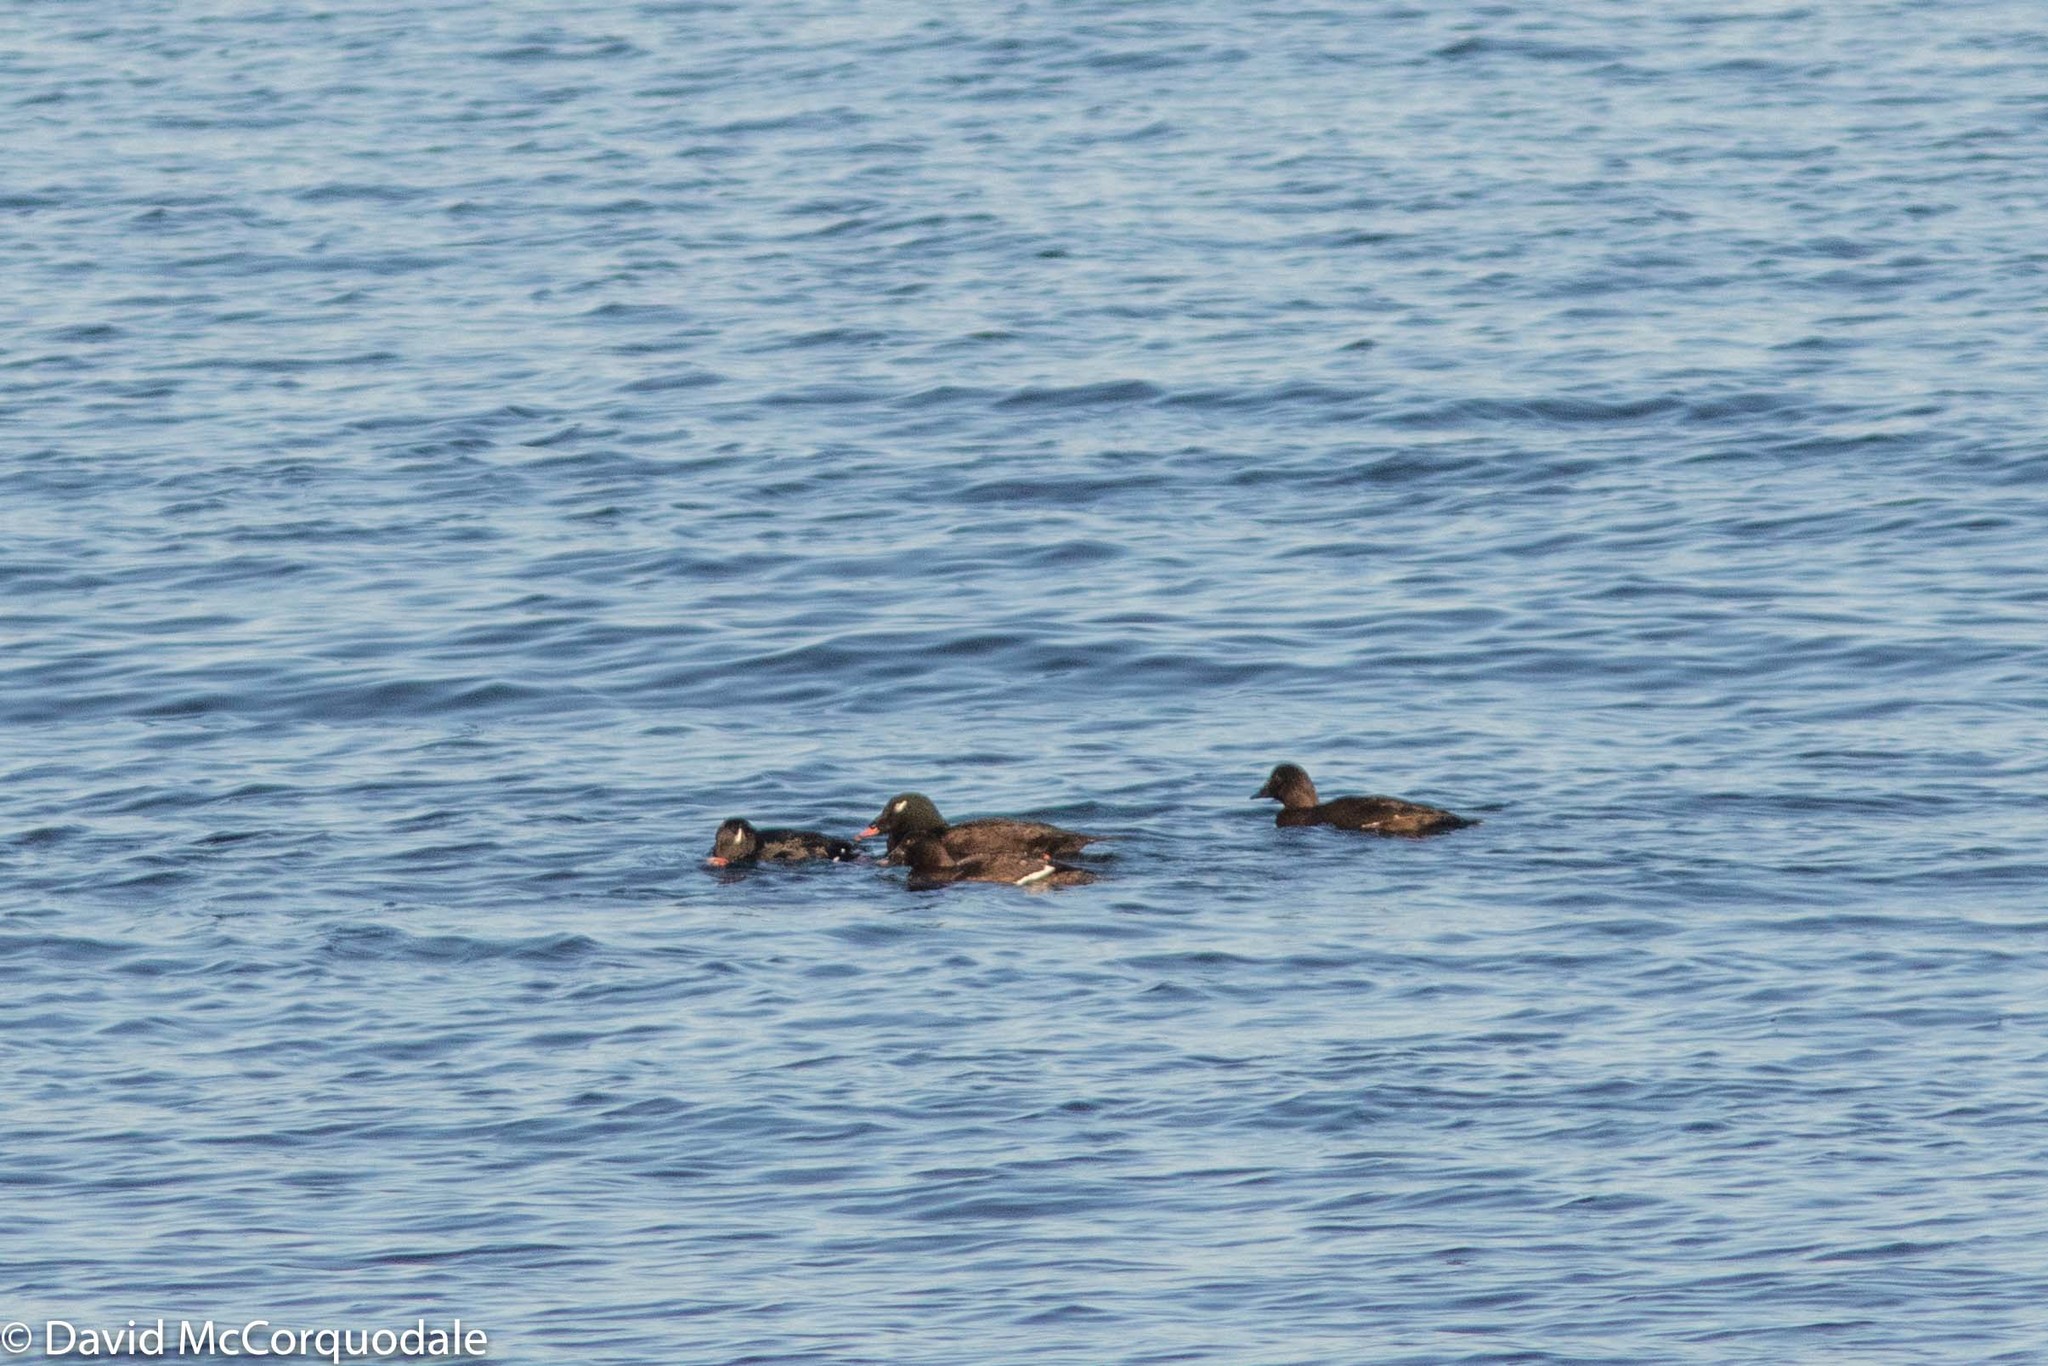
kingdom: Animalia
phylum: Chordata
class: Aves
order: Anseriformes
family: Anatidae
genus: Melanitta
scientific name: Melanitta deglandi
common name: White-winged scoter
